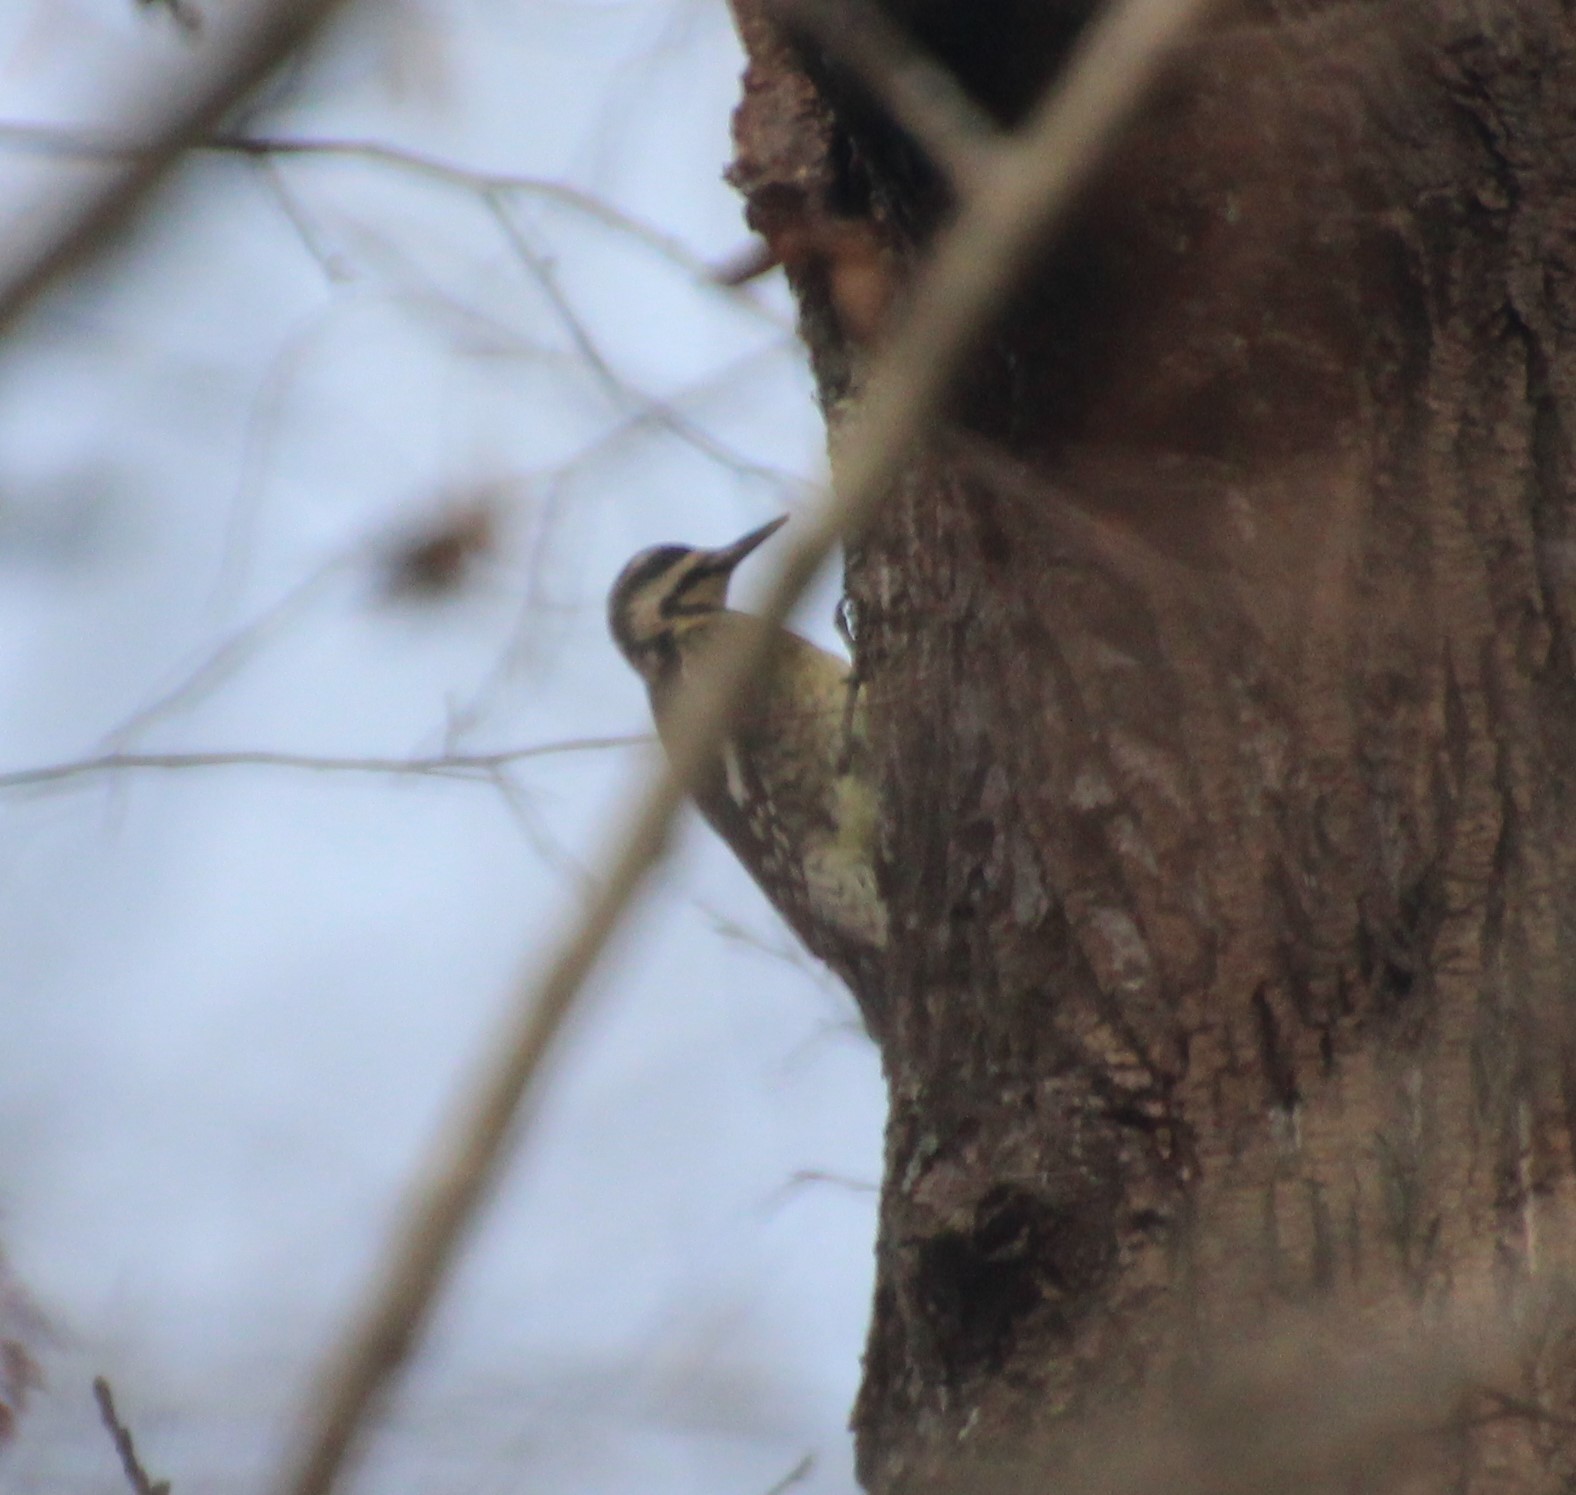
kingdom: Animalia
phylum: Chordata
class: Aves
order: Piciformes
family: Picidae
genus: Sphyrapicus
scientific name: Sphyrapicus varius
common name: Yellow-bellied sapsucker
